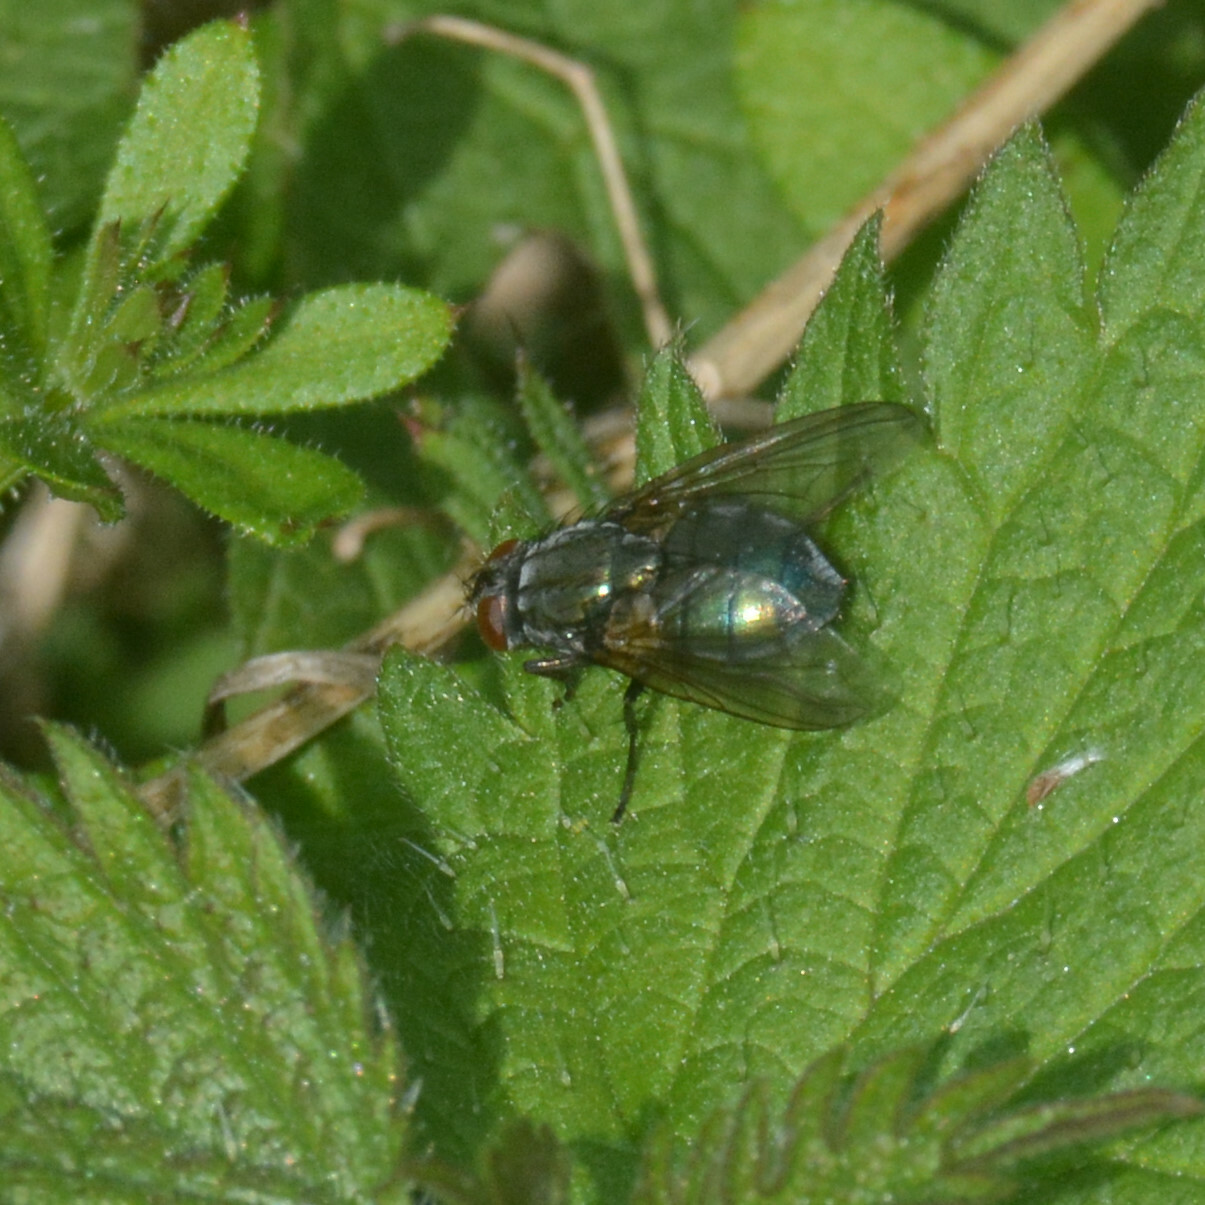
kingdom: Animalia
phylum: Arthropoda
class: Insecta
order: Diptera
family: Muscidae
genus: Dasyphora
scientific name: Dasyphora cyanella
